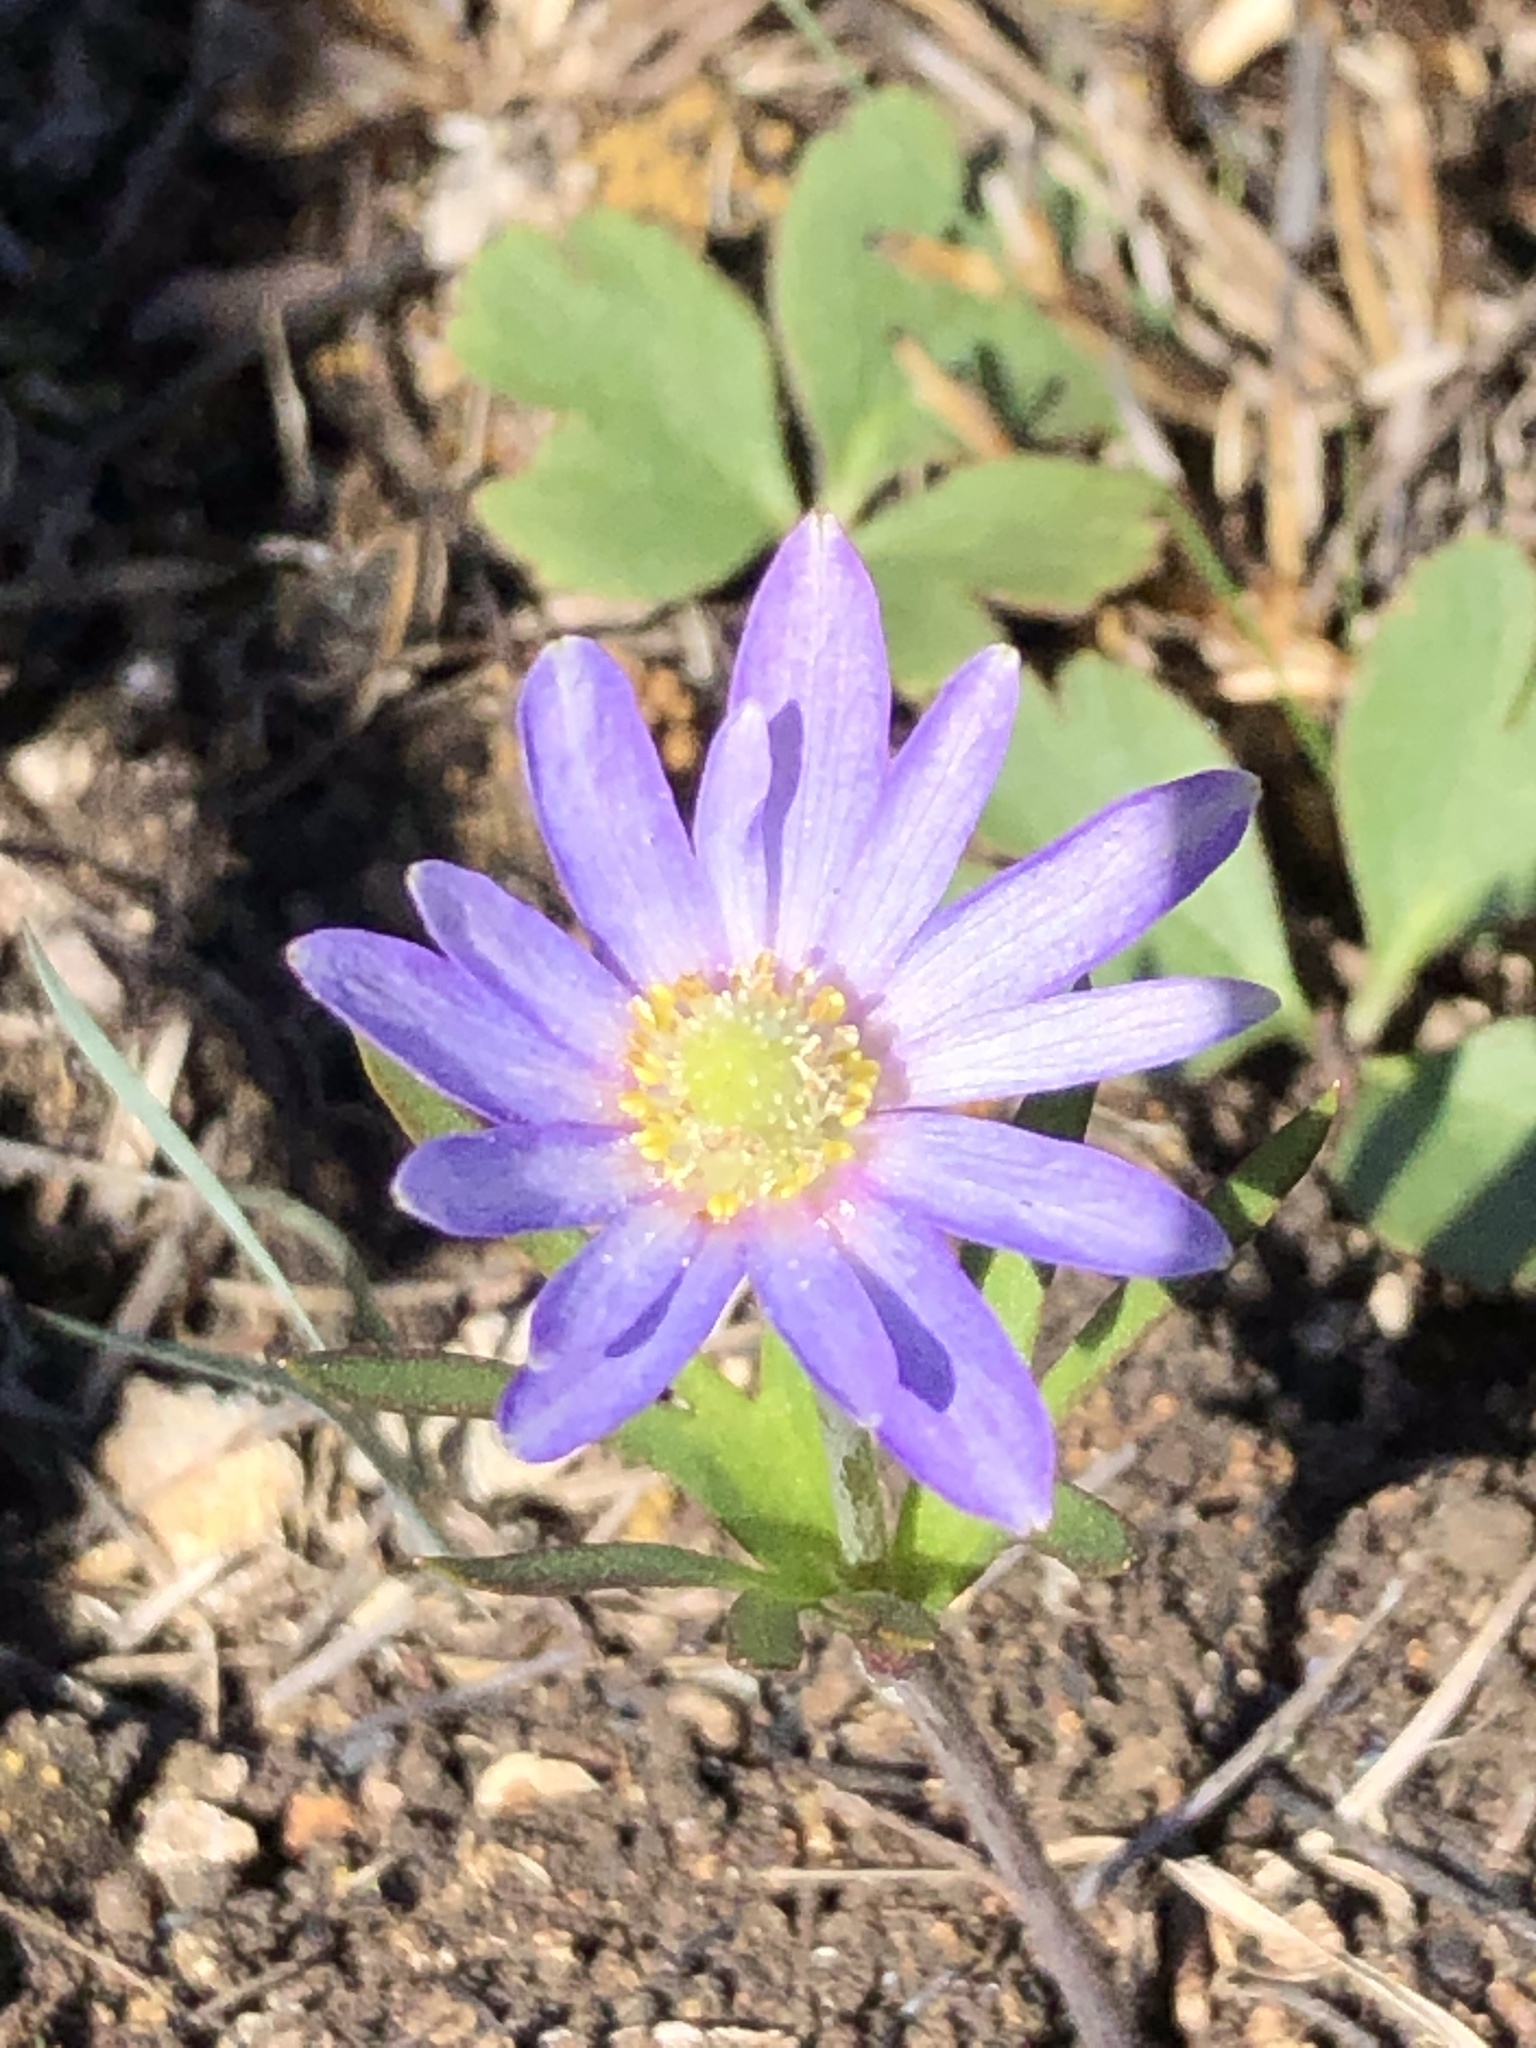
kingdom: Plantae
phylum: Tracheophyta
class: Magnoliopsida
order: Ranunculales
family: Ranunculaceae
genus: Anemone
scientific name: Anemone berlandieri
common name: Ten-petal anemone
